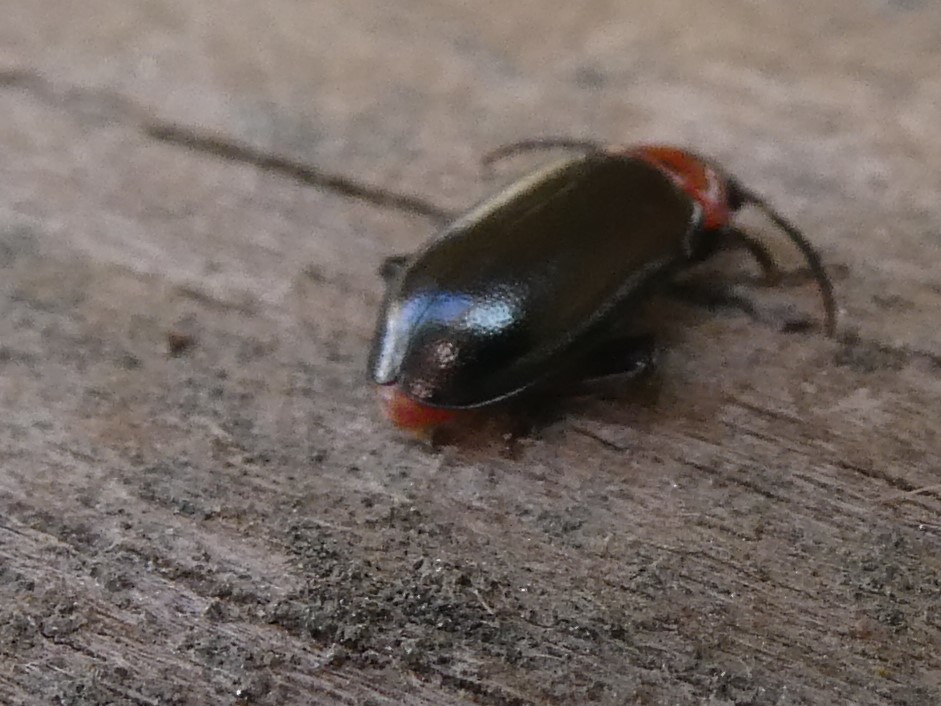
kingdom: Animalia
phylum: Arthropoda
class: Insecta
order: Coleoptera
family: Chrysomelidae
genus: Disonycha
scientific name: Disonycha xanthomelas
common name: Spinach flea beetle
